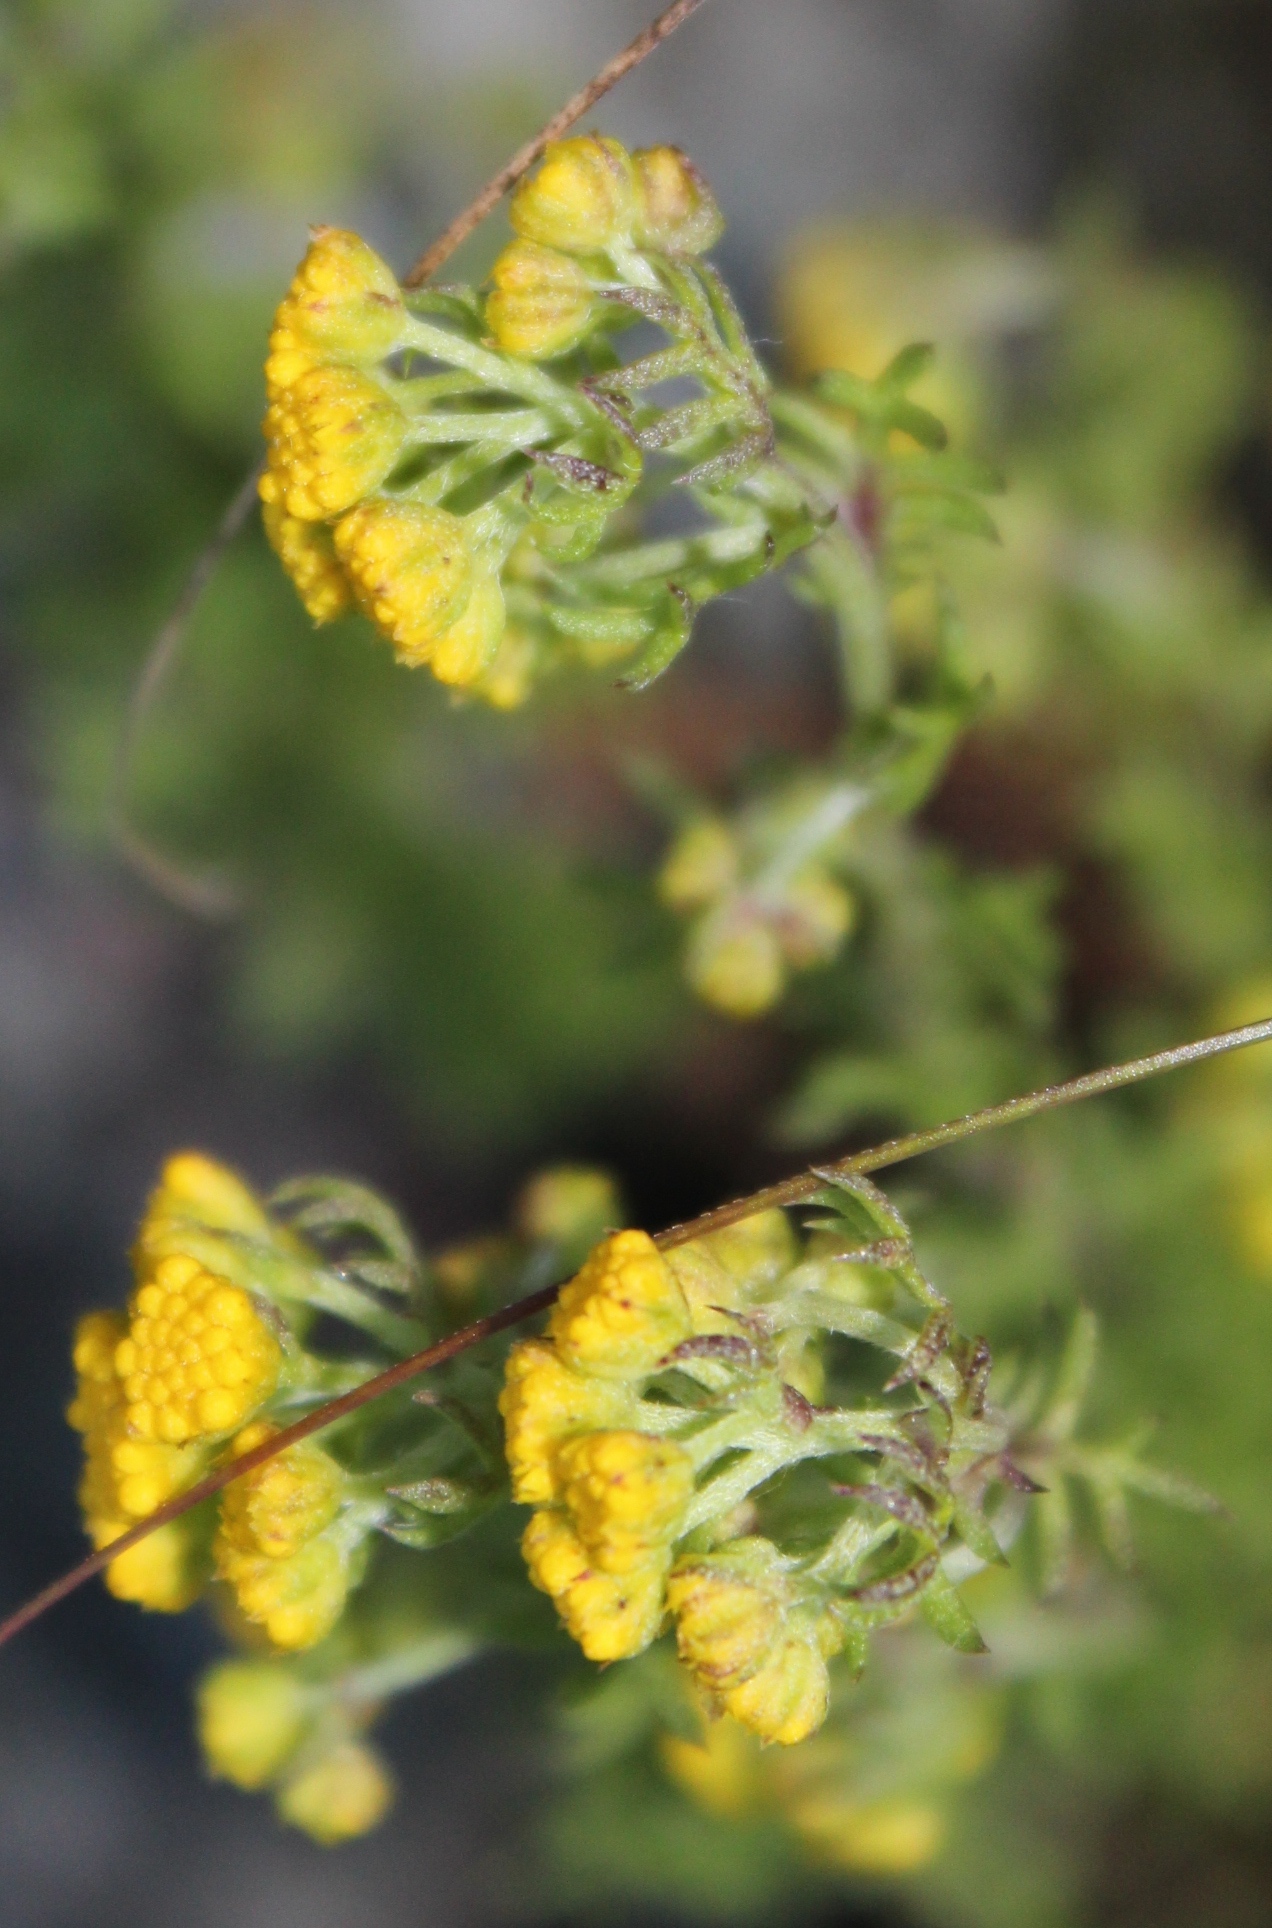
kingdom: Plantae
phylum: Tracheophyta
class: Magnoliopsida
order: Asterales
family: Asteraceae
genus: Hippia
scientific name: Hippia pilosa
